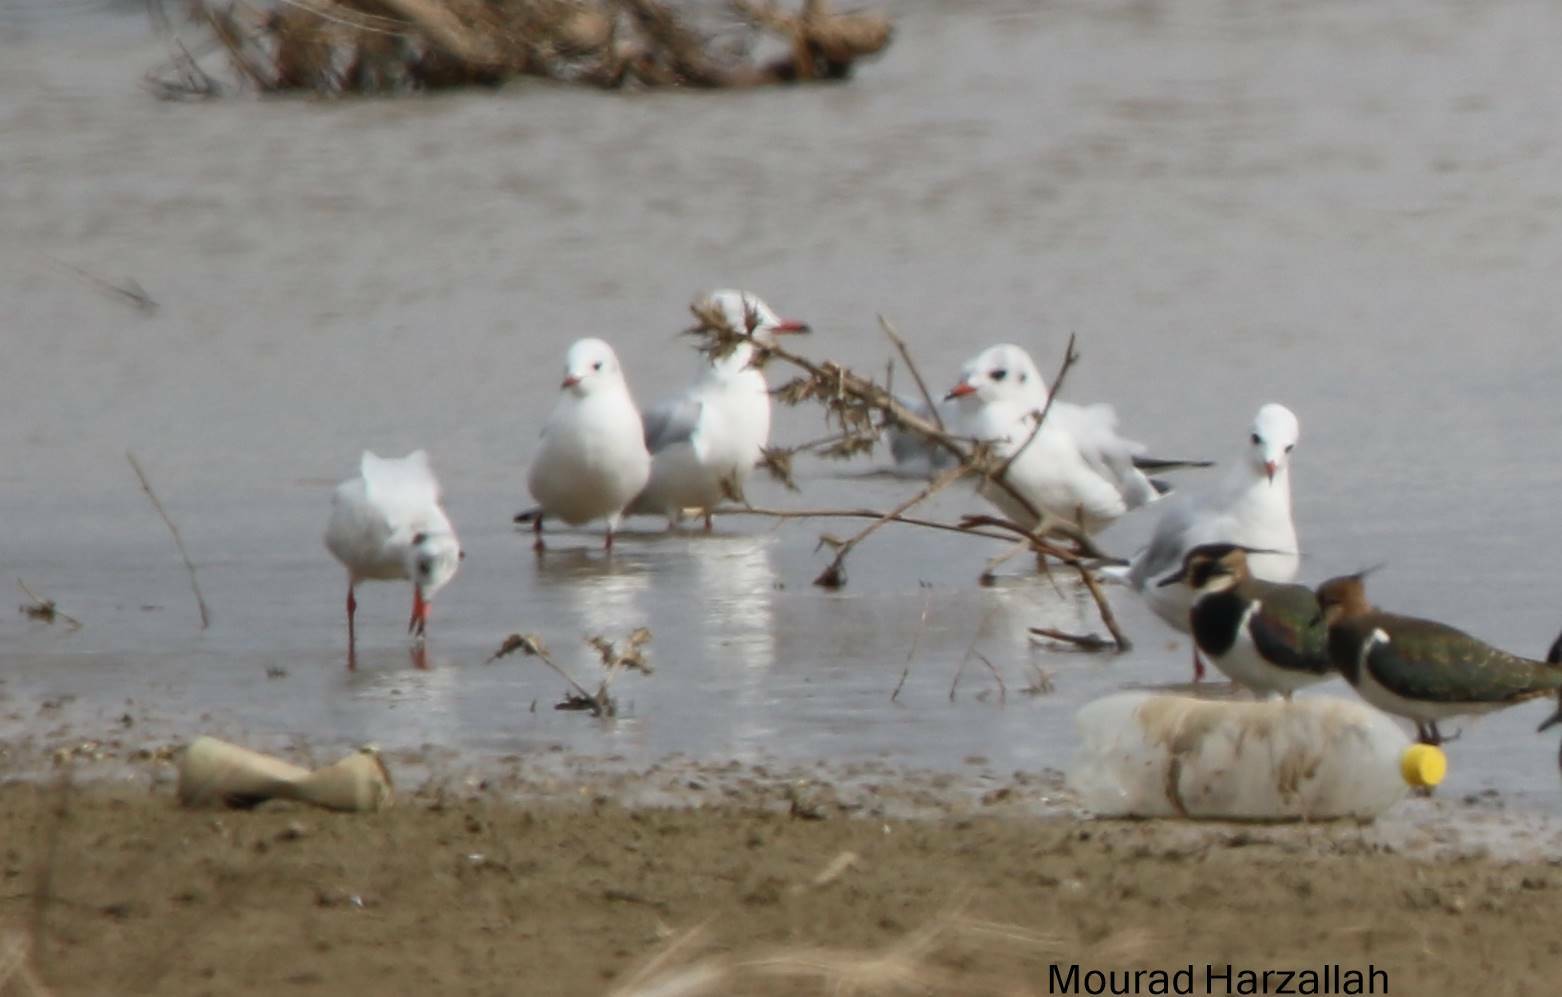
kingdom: Animalia
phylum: Chordata
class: Aves
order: Charadriiformes
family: Laridae
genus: Chroicocephalus
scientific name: Chroicocephalus ridibundus
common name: Black-headed gull
